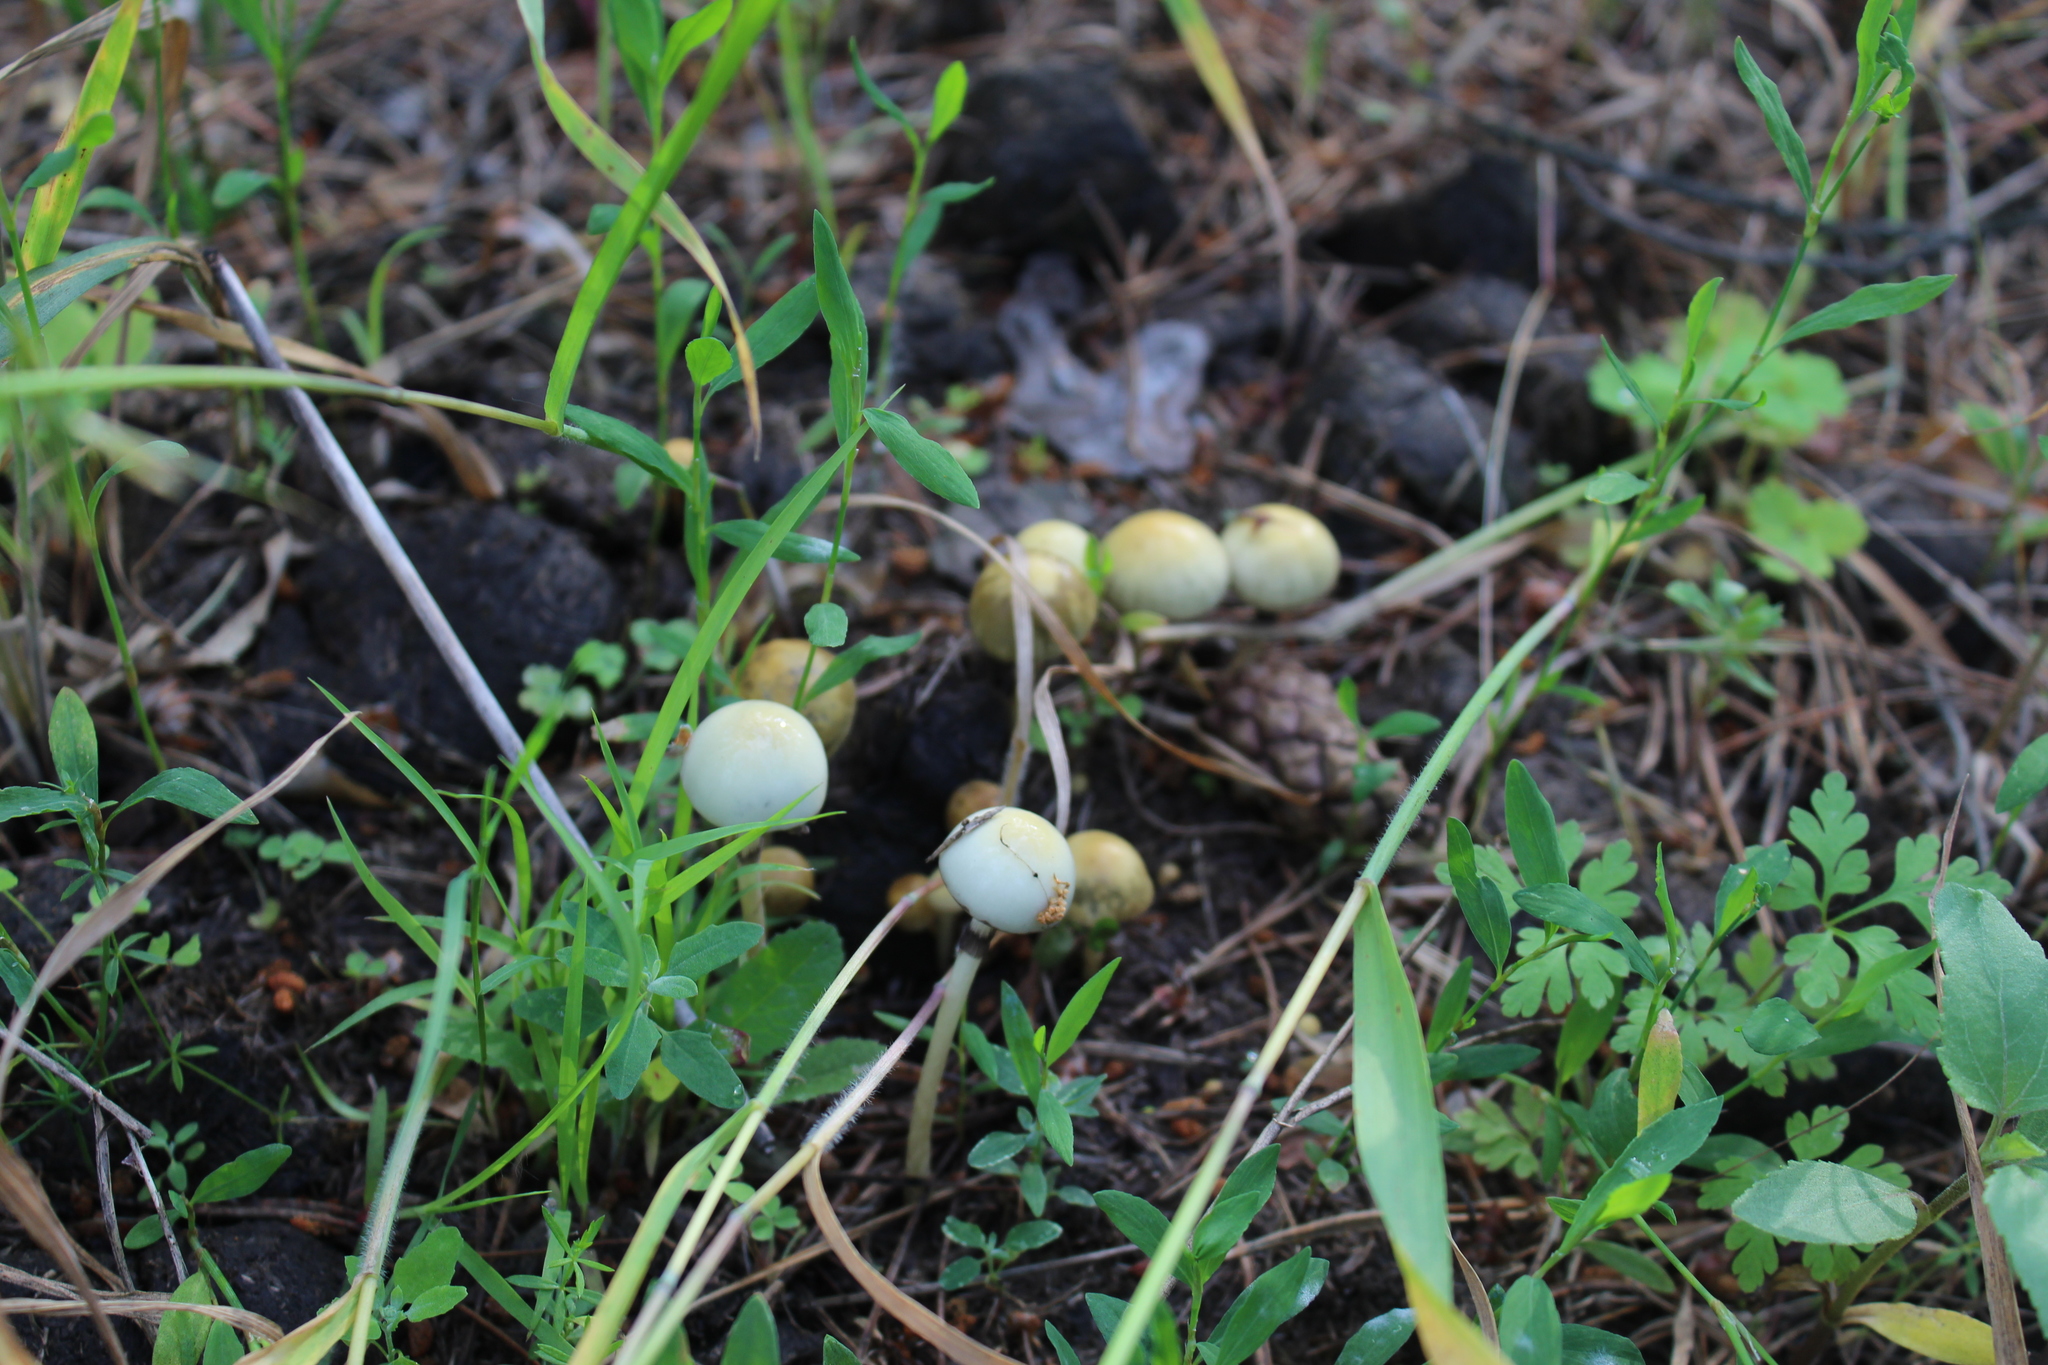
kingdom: Fungi
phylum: Basidiomycota
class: Agaricomycetes
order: Agaricales
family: Strophariaceae
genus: Protostropharia
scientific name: Protostropharia semiglobata
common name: Dung roundhead
